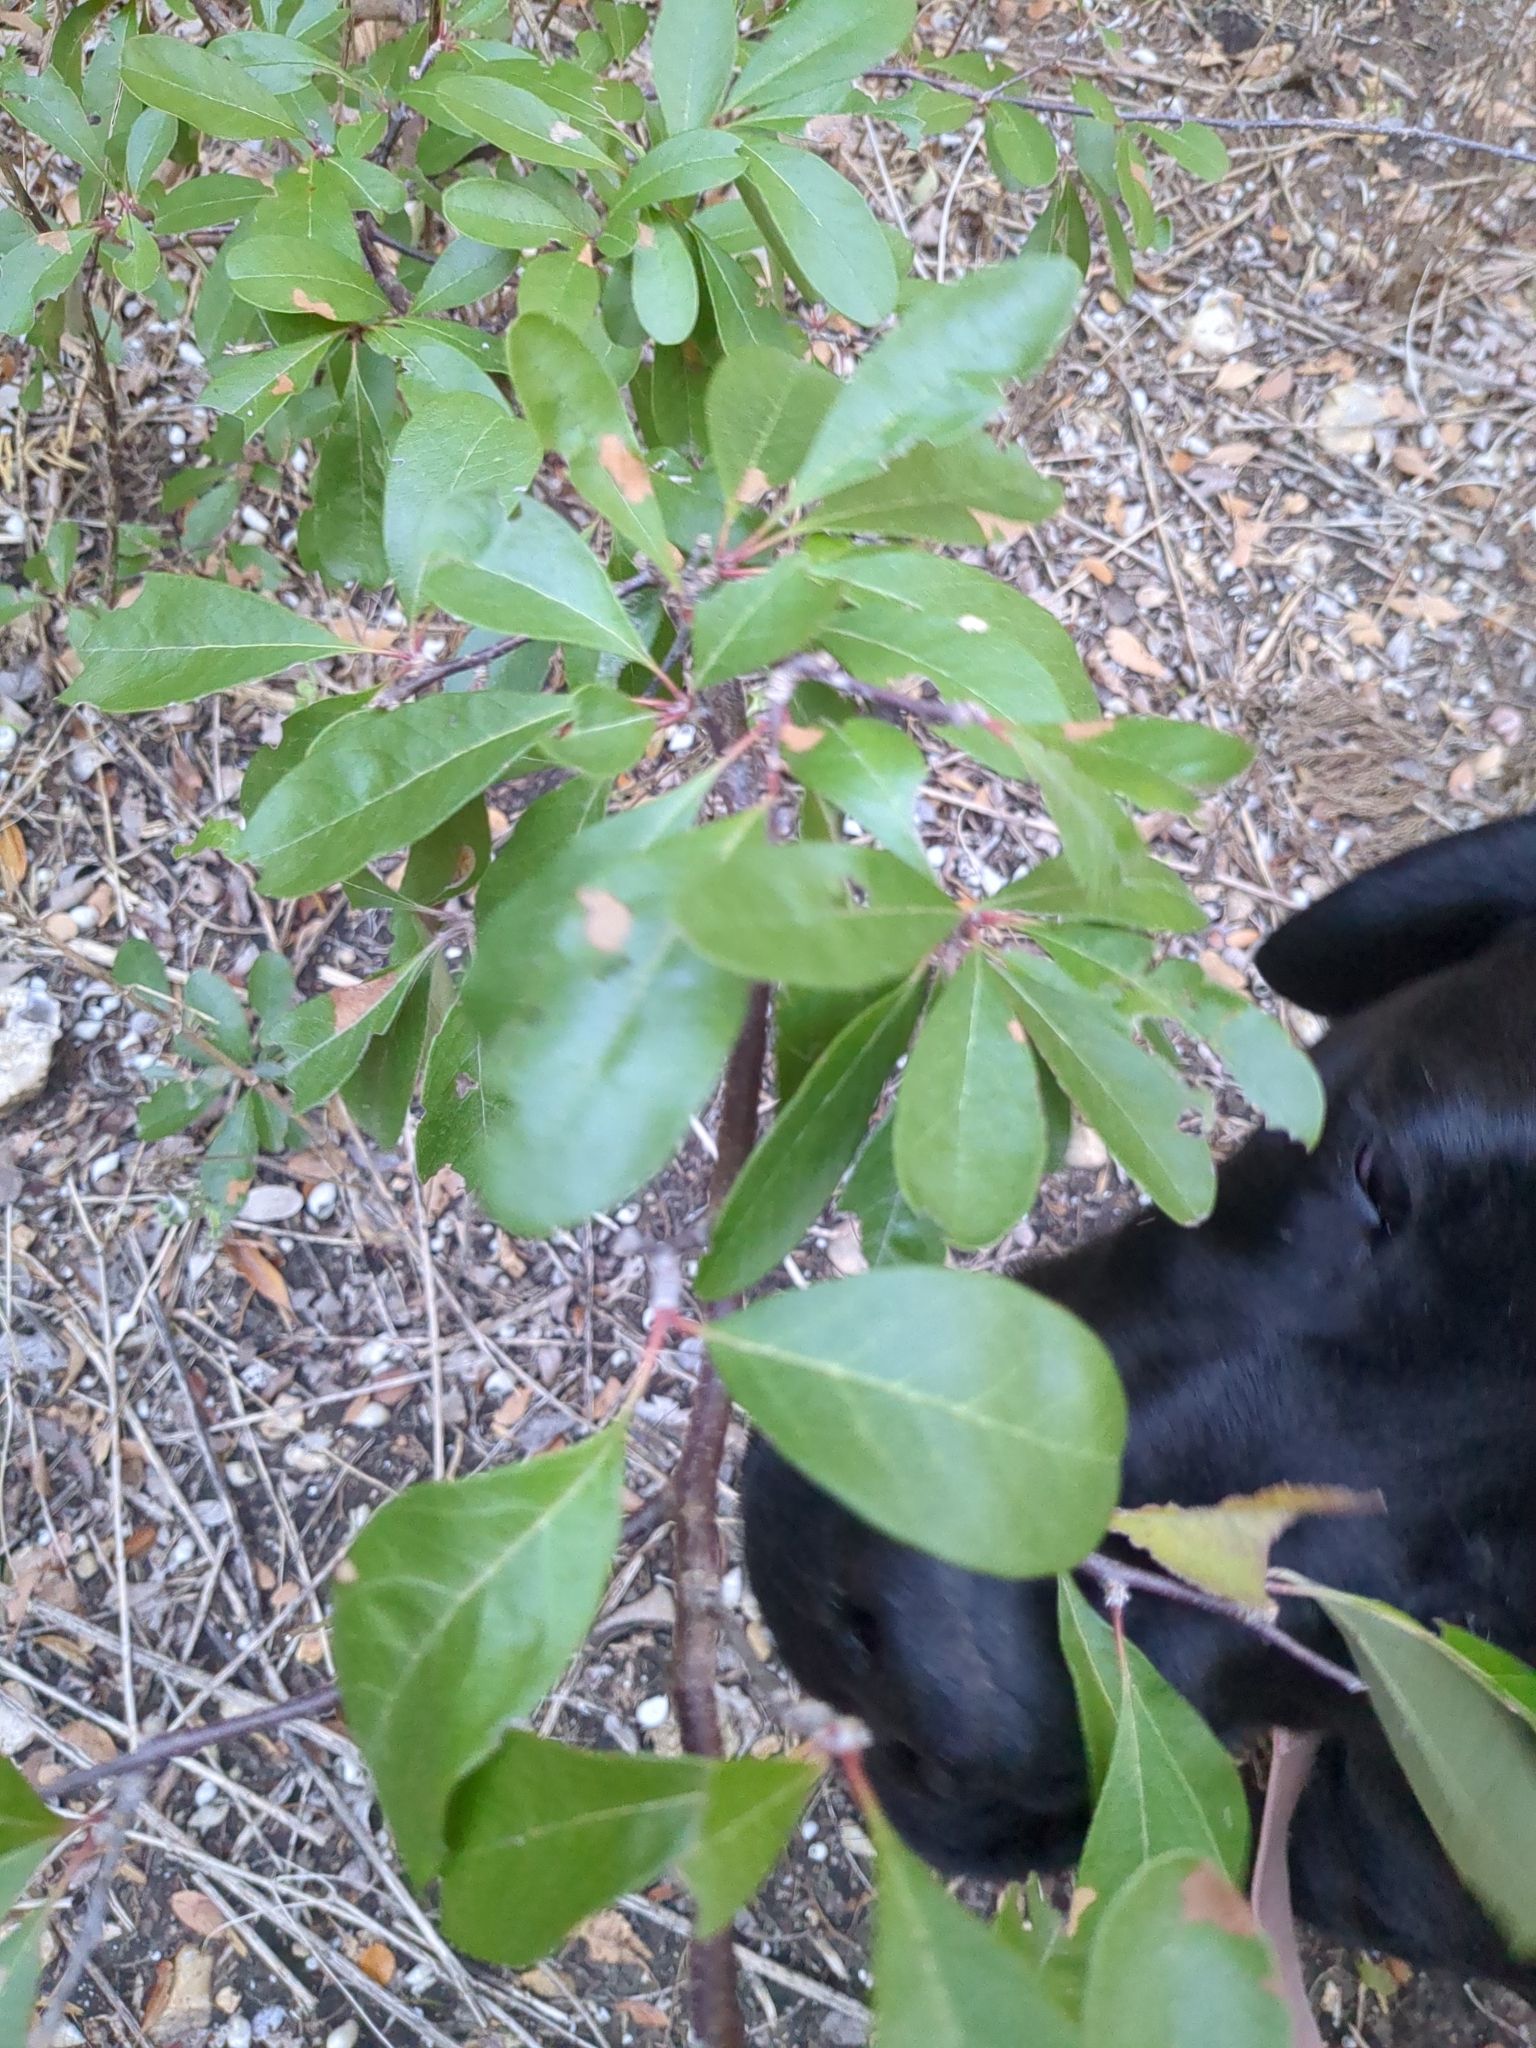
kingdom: Plantae
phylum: Tracheophyta
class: Magnoliopsida
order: Ericales
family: Sapotaceae
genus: Sideroxylon
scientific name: Sideroxylon lanuginosum
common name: Chittamwood
